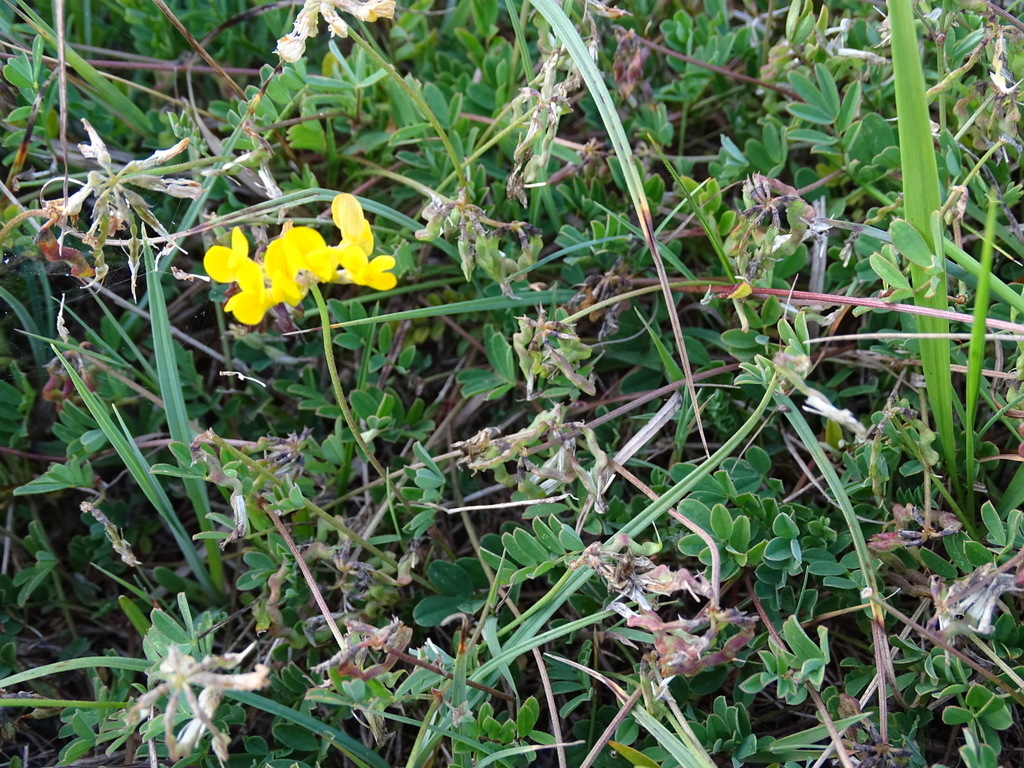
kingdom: Plantae
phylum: Tracheophyta
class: Magnoliopsida
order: Fabales
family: Fabaceae
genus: Hippocrepis
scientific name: Hippocrepis comosa
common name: Horseshoe vetch
